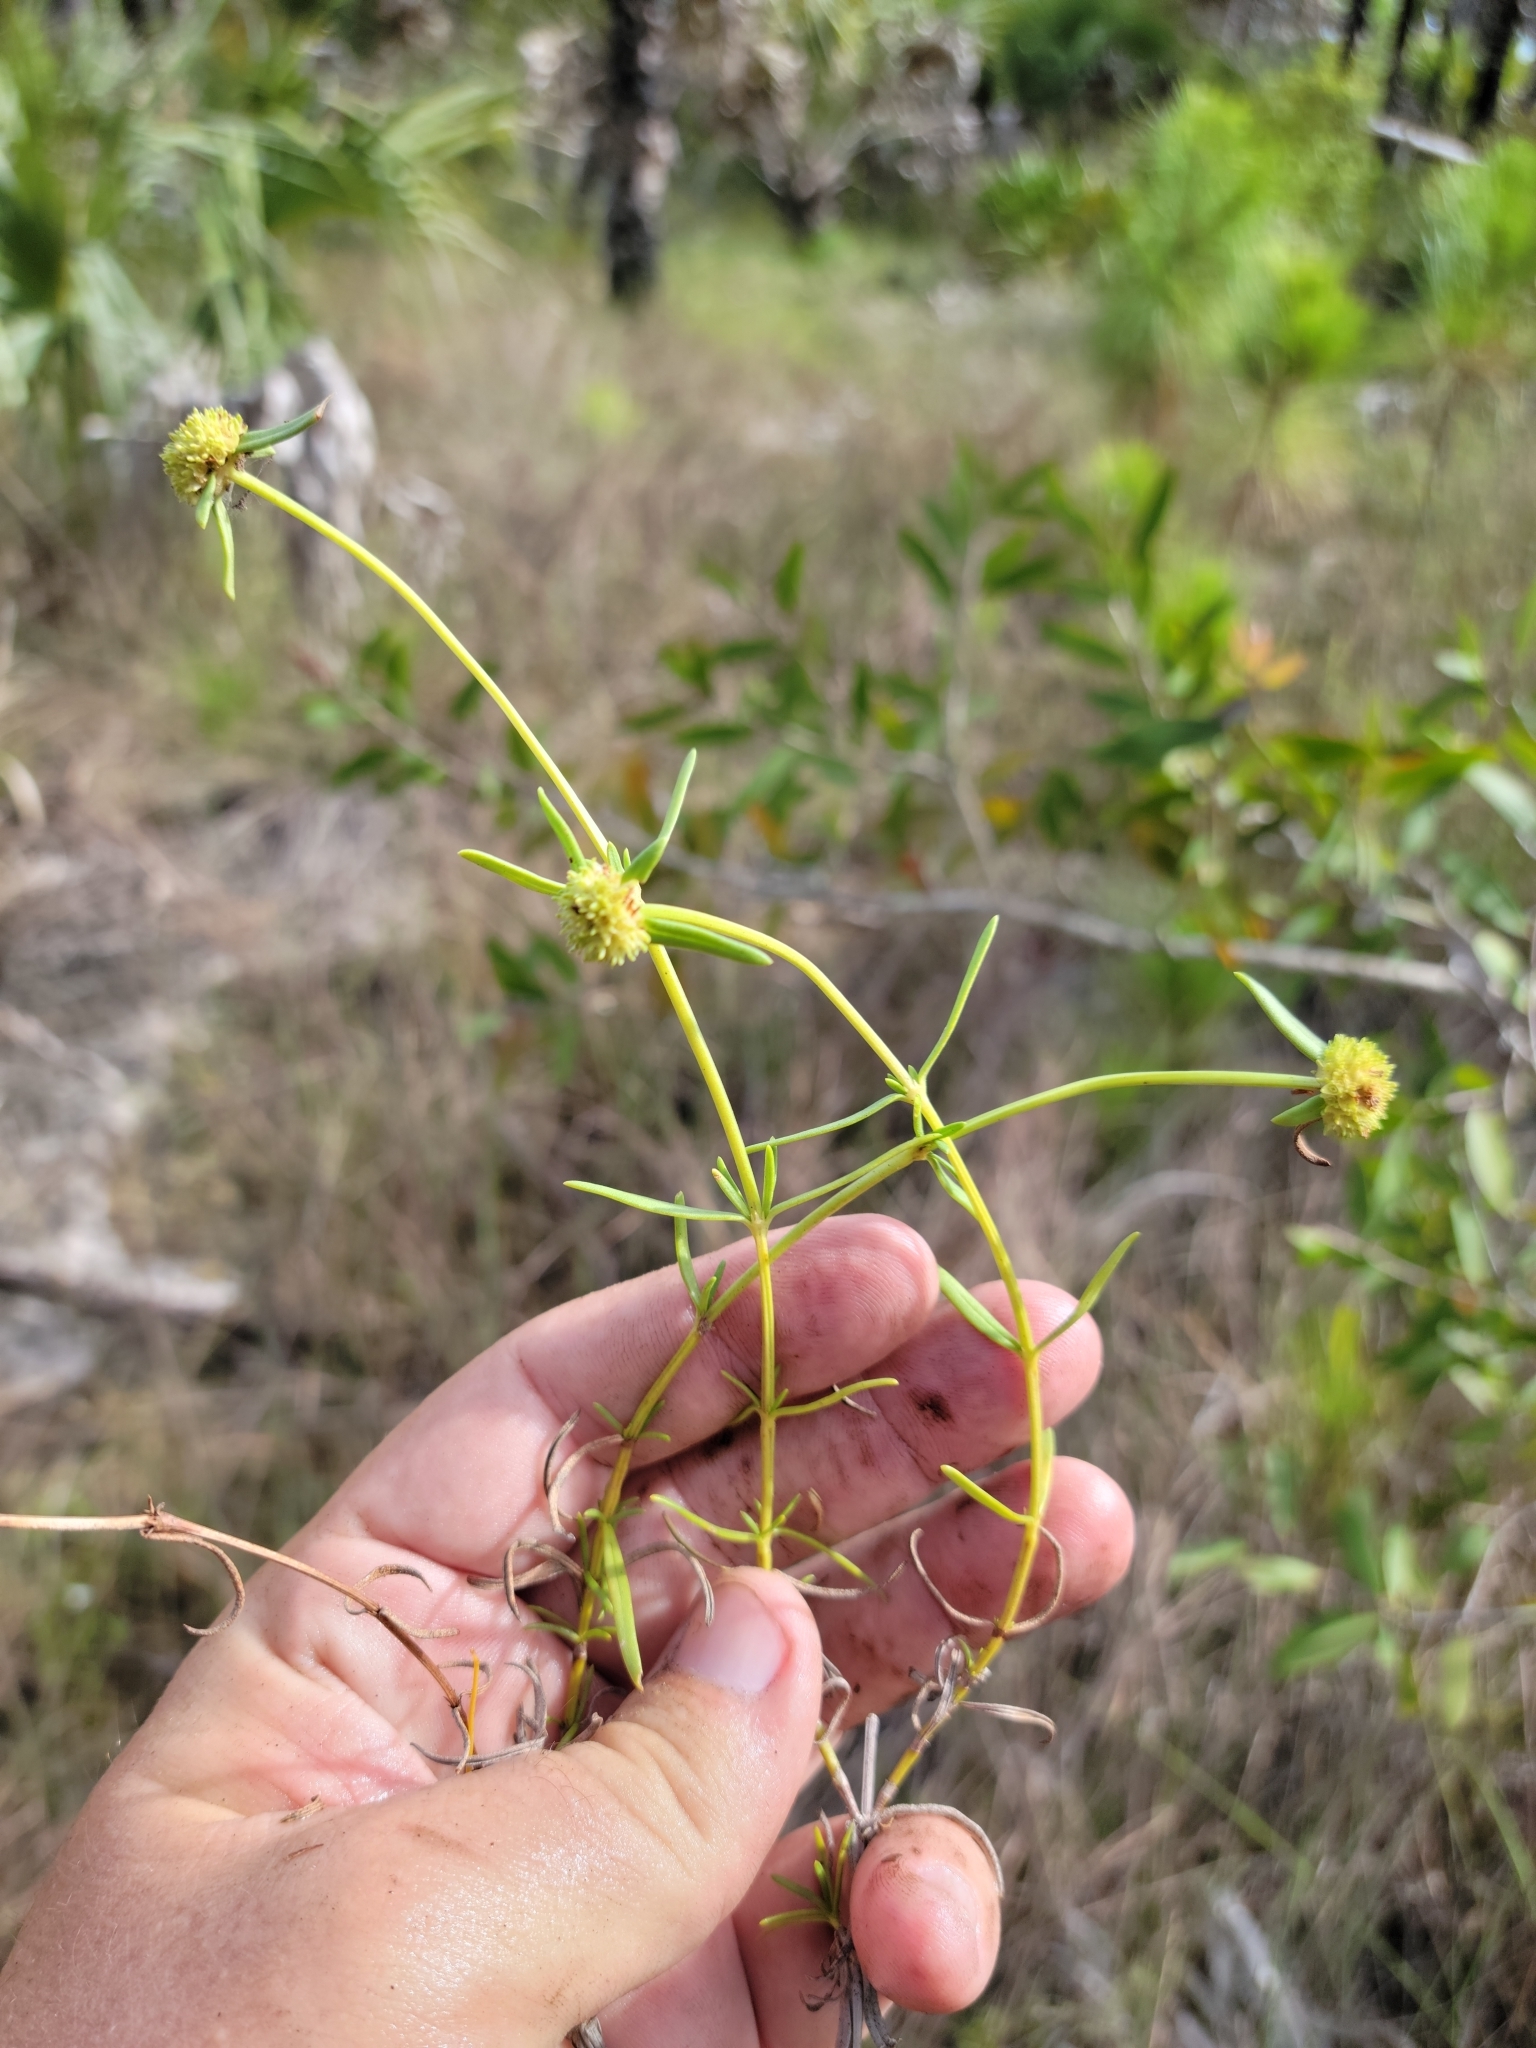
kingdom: Plantae
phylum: Tracheophyta
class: Magnoliopsida
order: Gentianales
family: Rubiaceae
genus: Spermacoce
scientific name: Spermacoce neoterminalis
